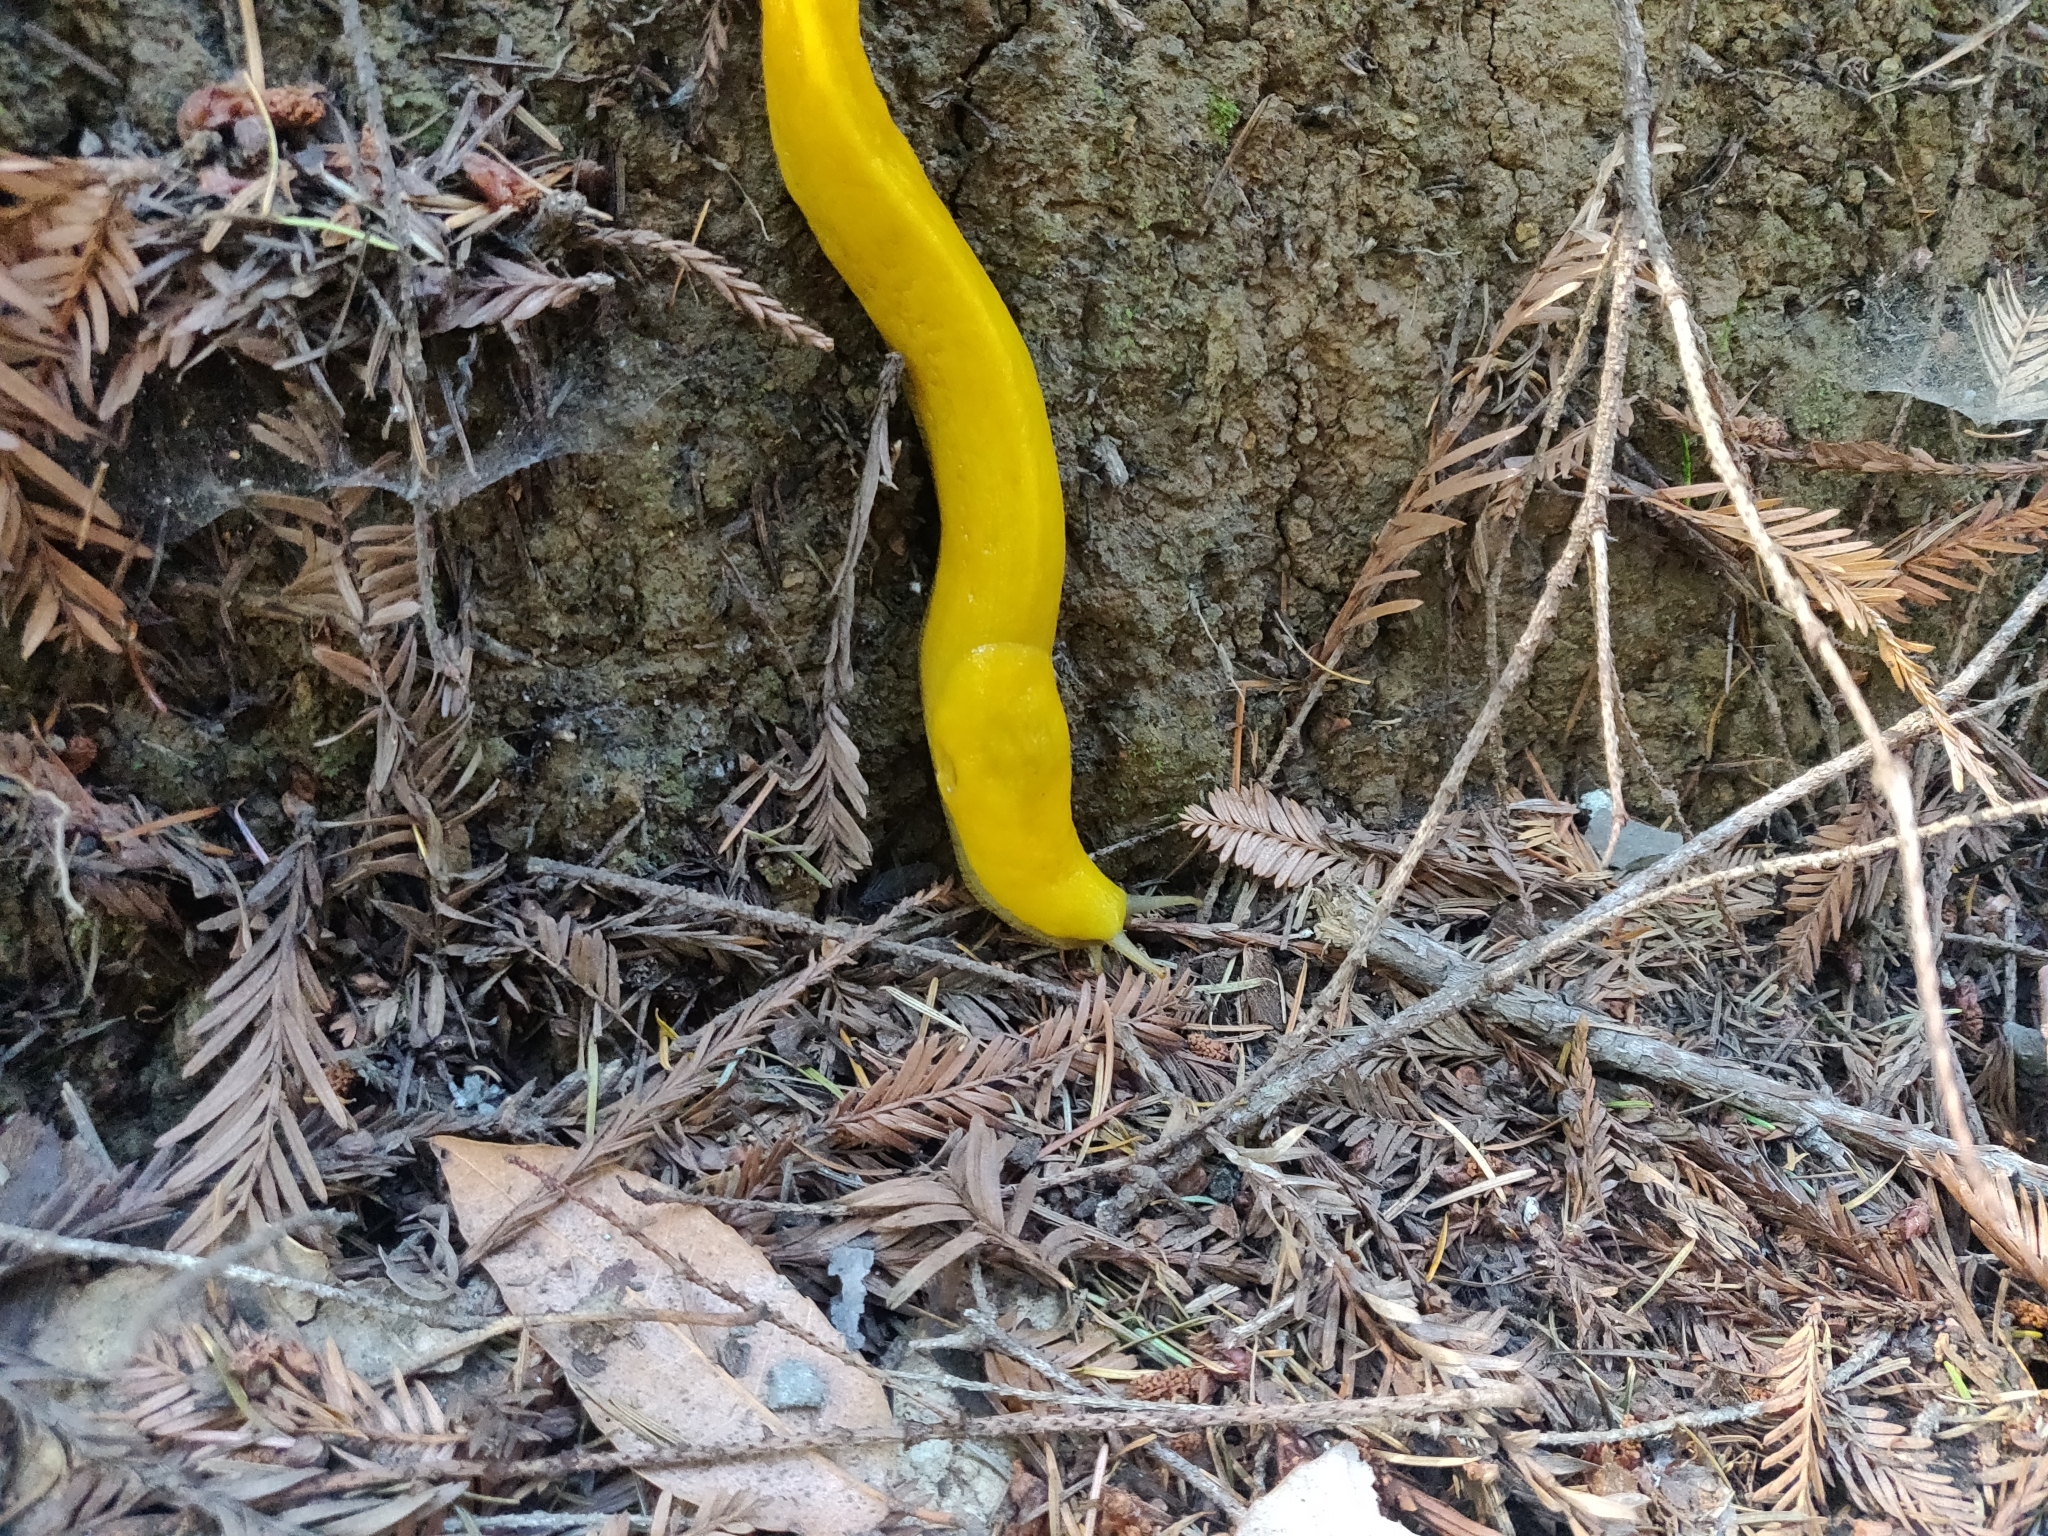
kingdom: Animalia
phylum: Mollusca
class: Gastropoda
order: Stylommatophora
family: Ariolimacidae
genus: Ariolimax
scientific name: Ariolimax californicus
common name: California banana slug
